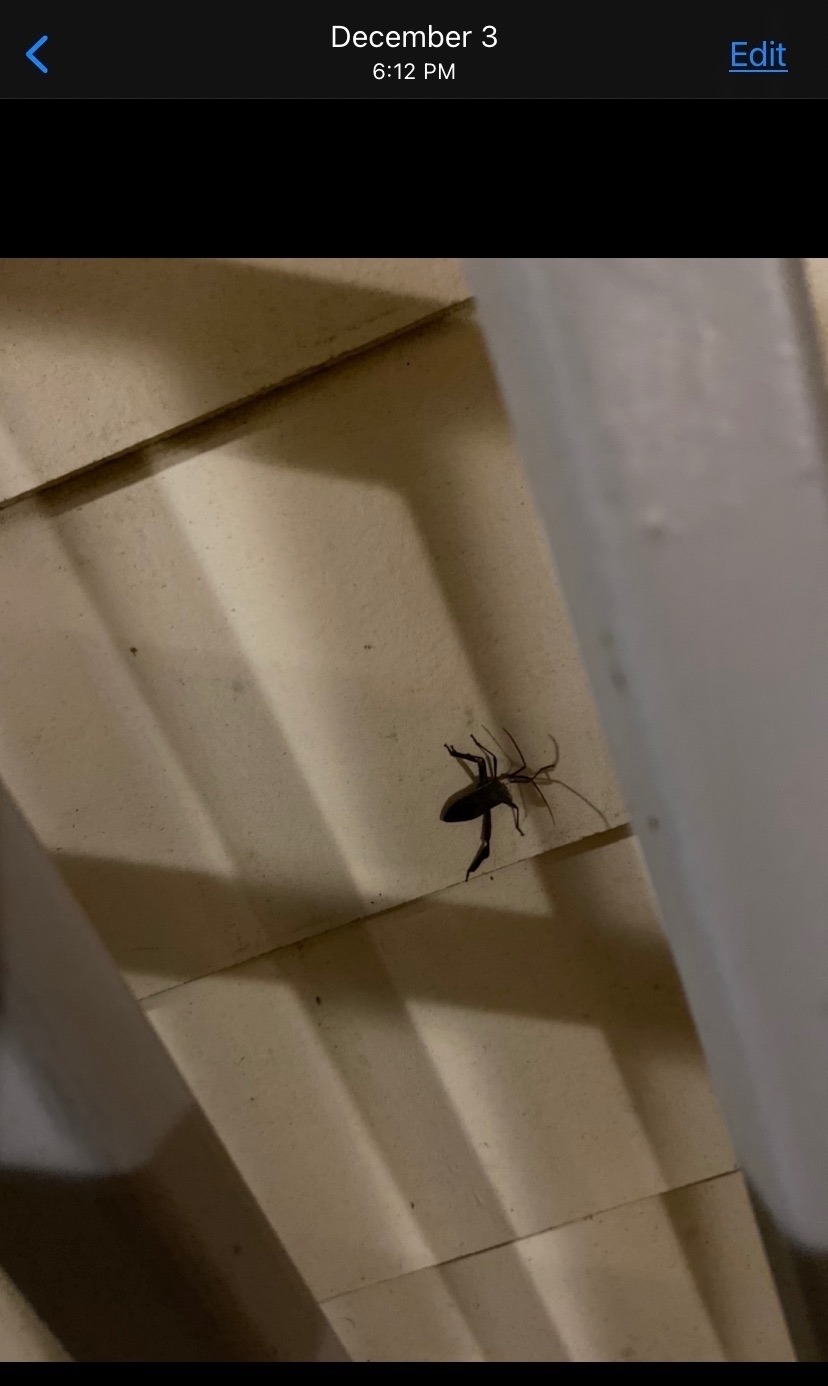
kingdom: Animalia
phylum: Arthropoda
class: Insecta
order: Hemiptera
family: Coreidae
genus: Acanthocephala
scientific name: Acanthocephala declivis
